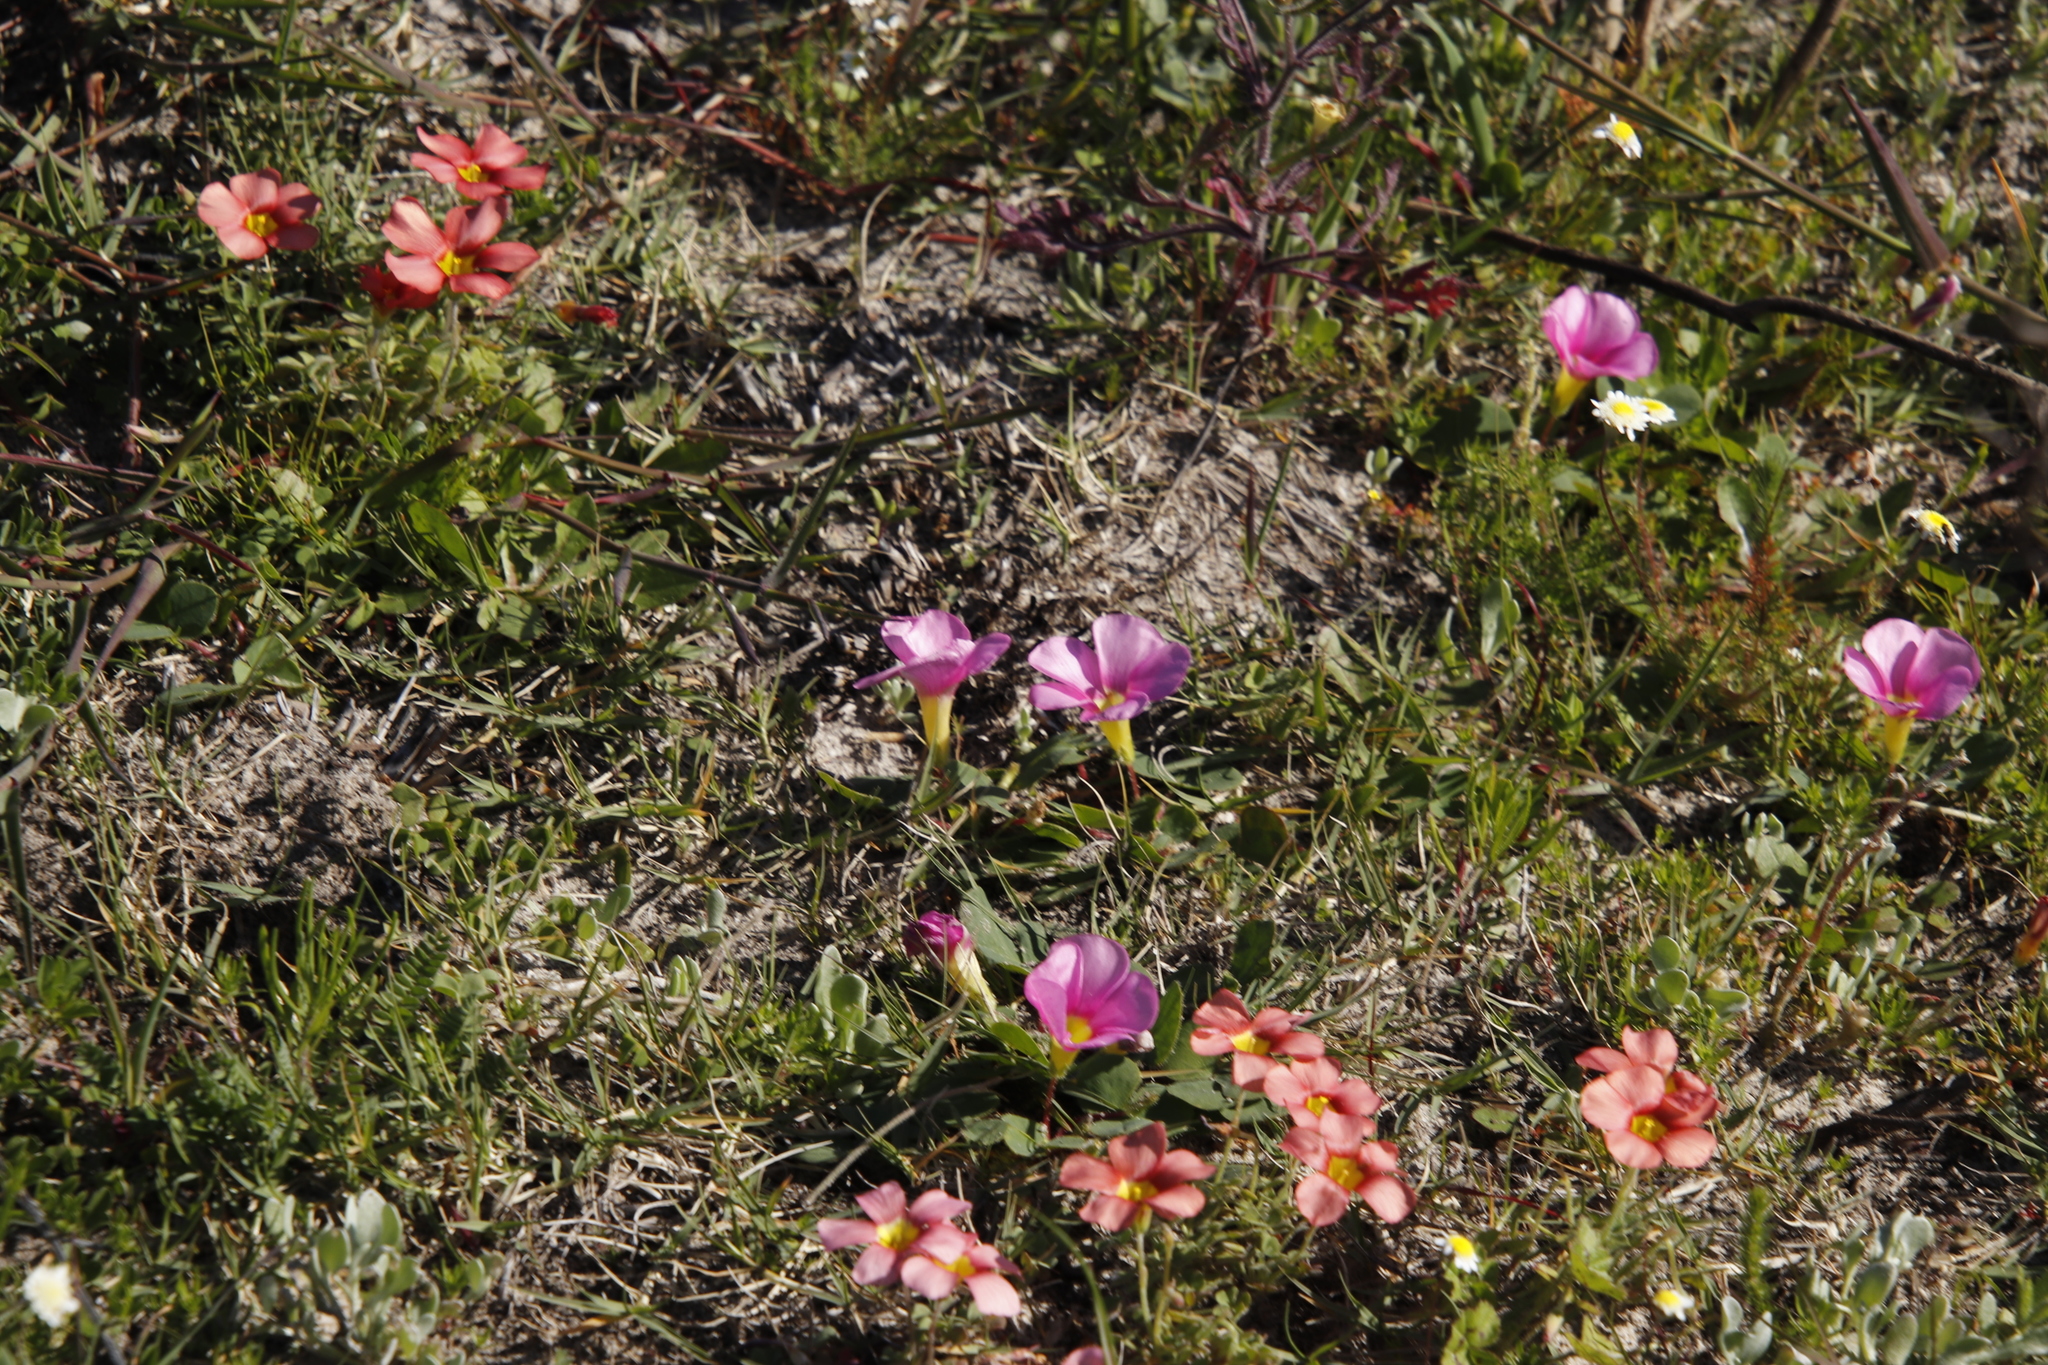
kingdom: Plantae
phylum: Tracheophyta
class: Magnoliopsida
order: Oxalidales
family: Oxalidaceae
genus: Oxalis
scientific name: Oxalis obtusa
